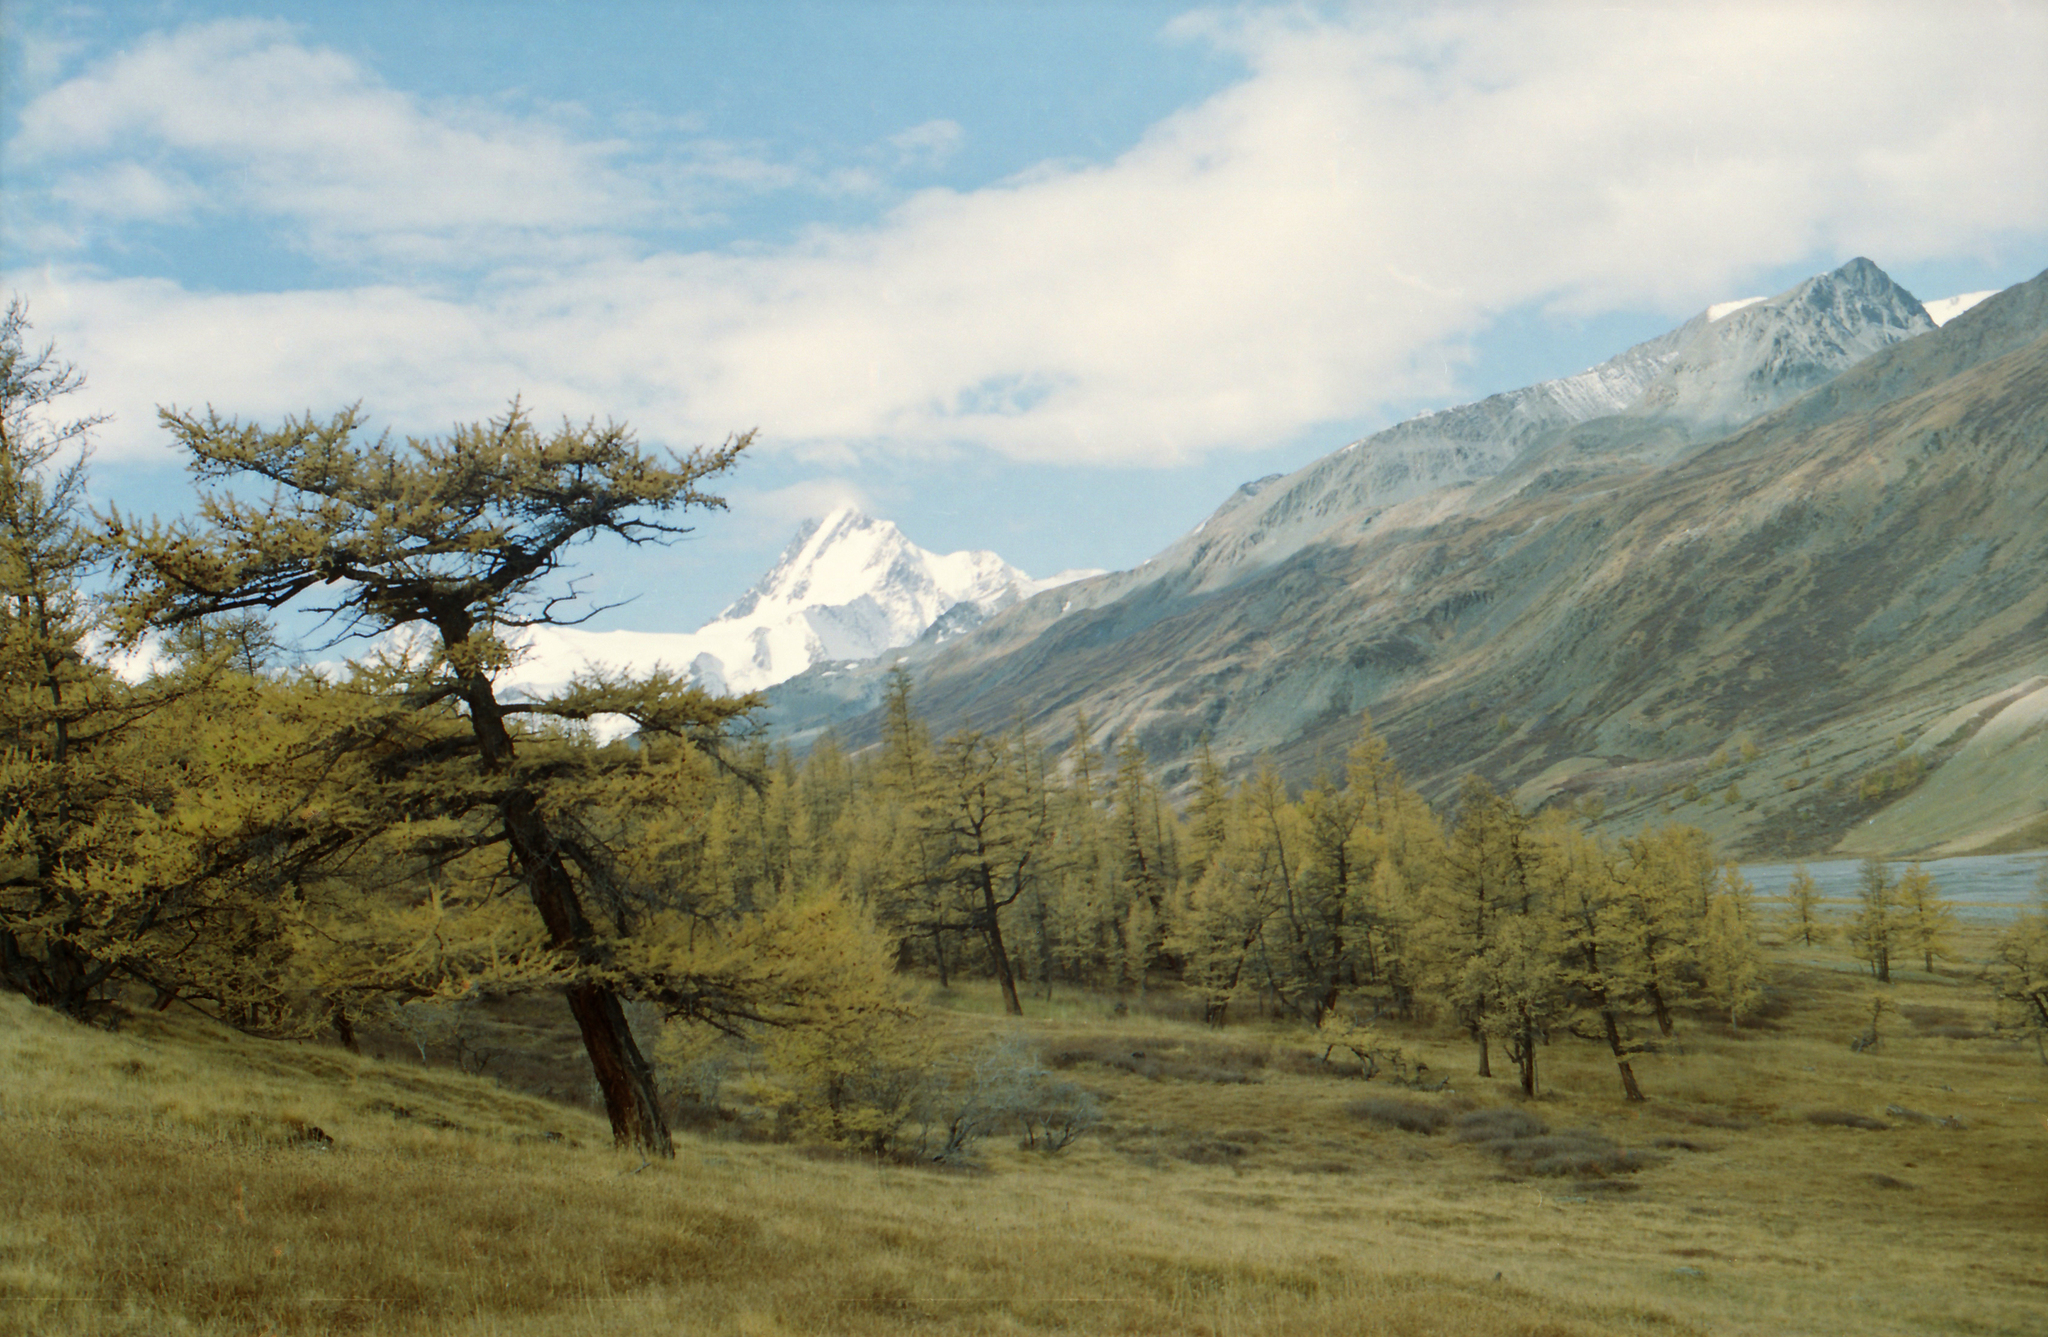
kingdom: Plantae
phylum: Tracheophyta
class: Pinopsida
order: Pinales
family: Pinaceae
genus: Larix
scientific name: Larix sibirica
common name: Siberian larch
